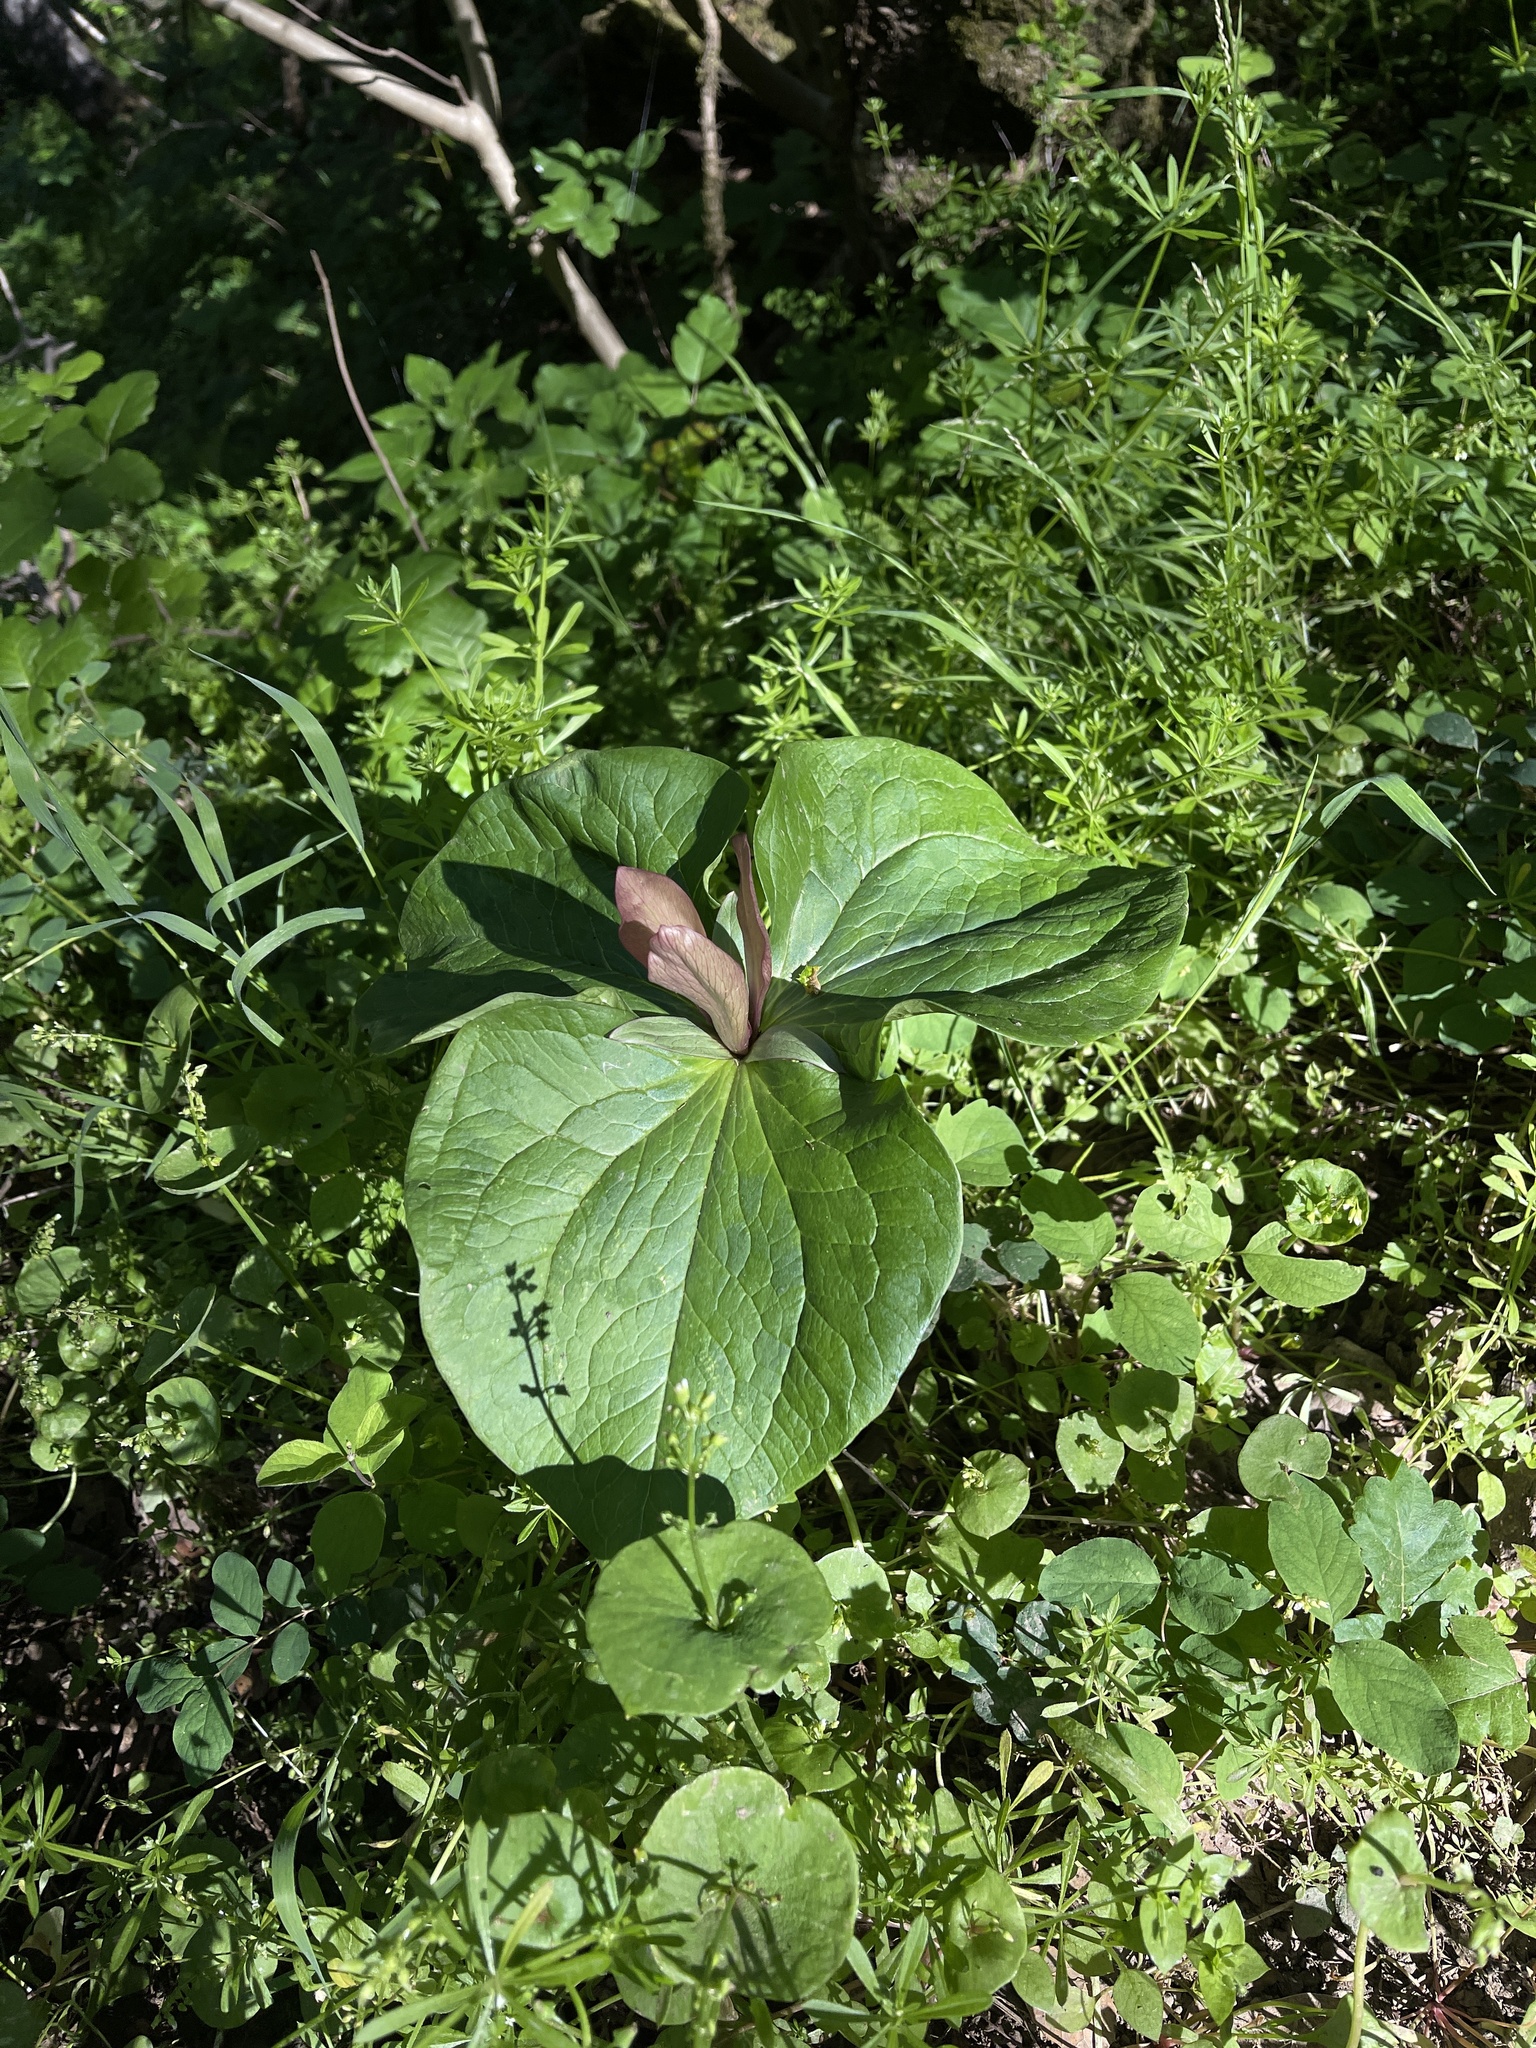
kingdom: Plantae
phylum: Tracheophyta
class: Liliopsida
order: Liliales
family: Melanthiaceae
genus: Trillium
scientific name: Trillium chloropetalum
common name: Giant trillium
